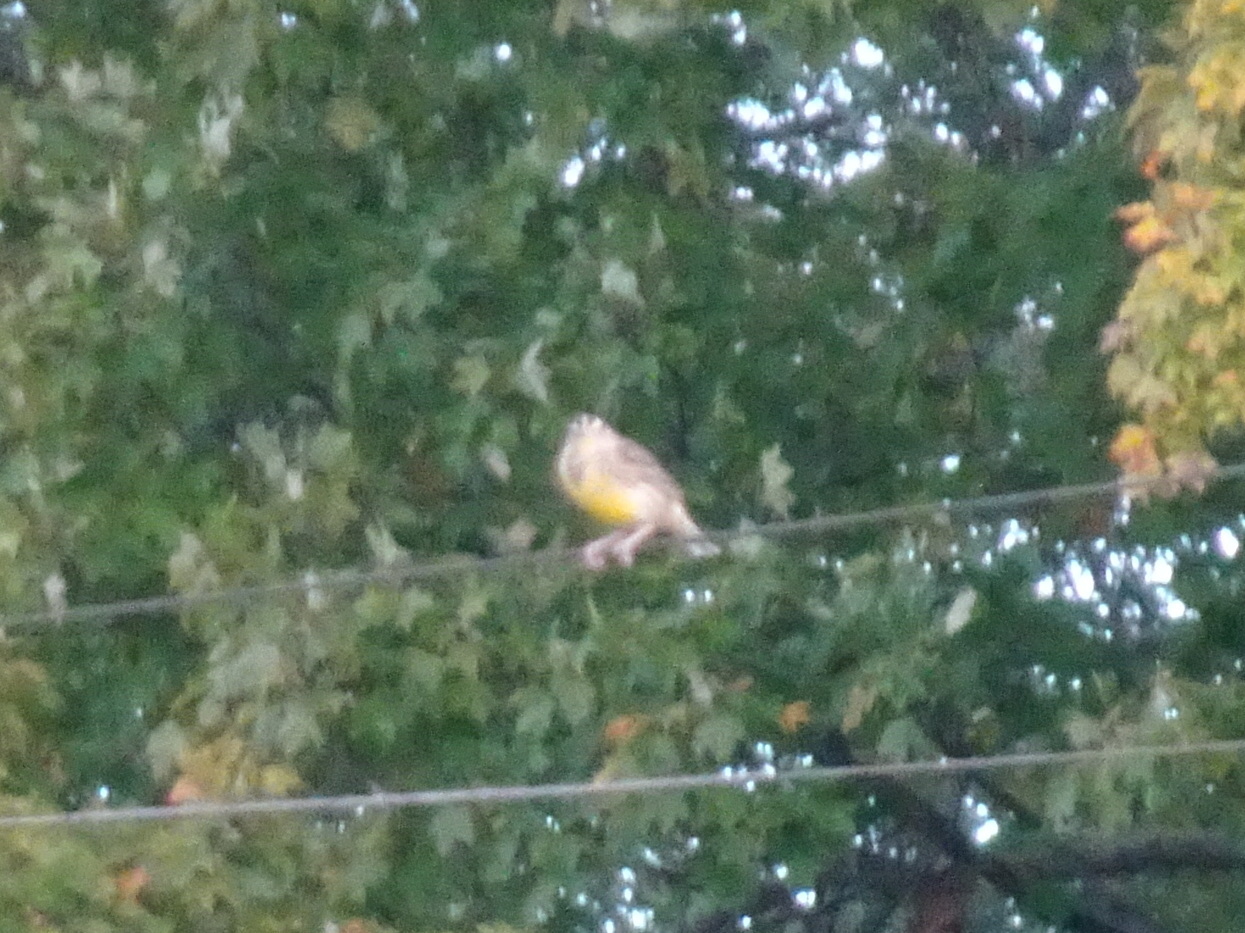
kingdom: Animalia
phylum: Chordata
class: Aves
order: Passeriformes
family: Icteridae
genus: Sturnella
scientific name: Sturnella magna
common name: Eastern meadowlark
